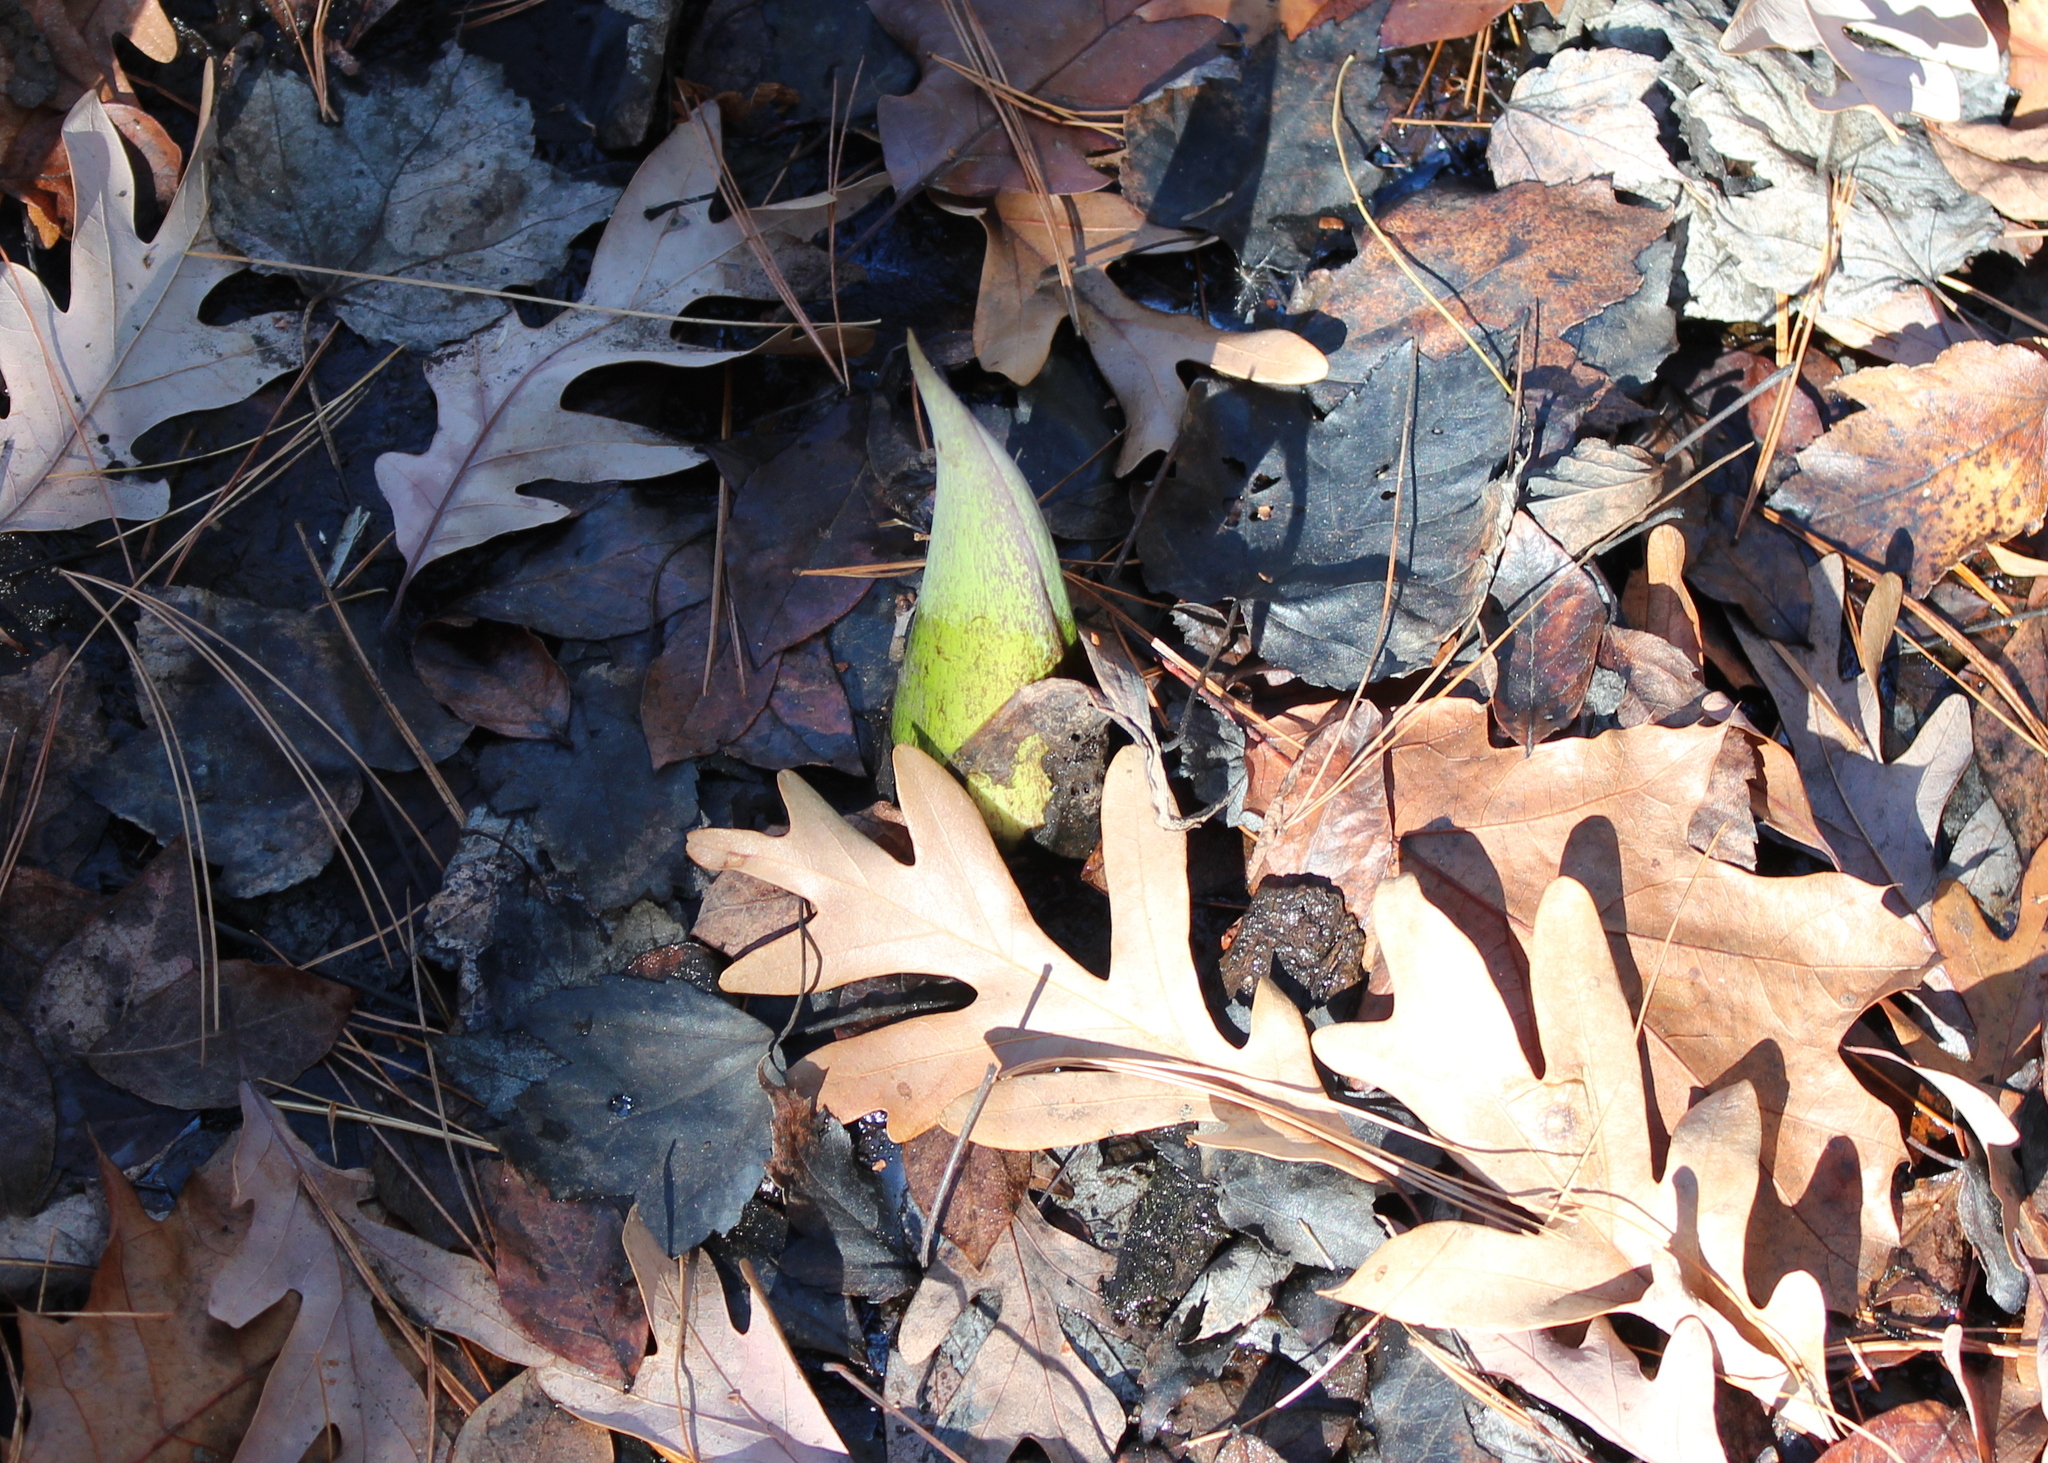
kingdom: Plantae
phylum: Tracheophyta
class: Magnoliopsida
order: Fagales
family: Fagaceae
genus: Quercus
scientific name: Quercus alba
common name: White oak
